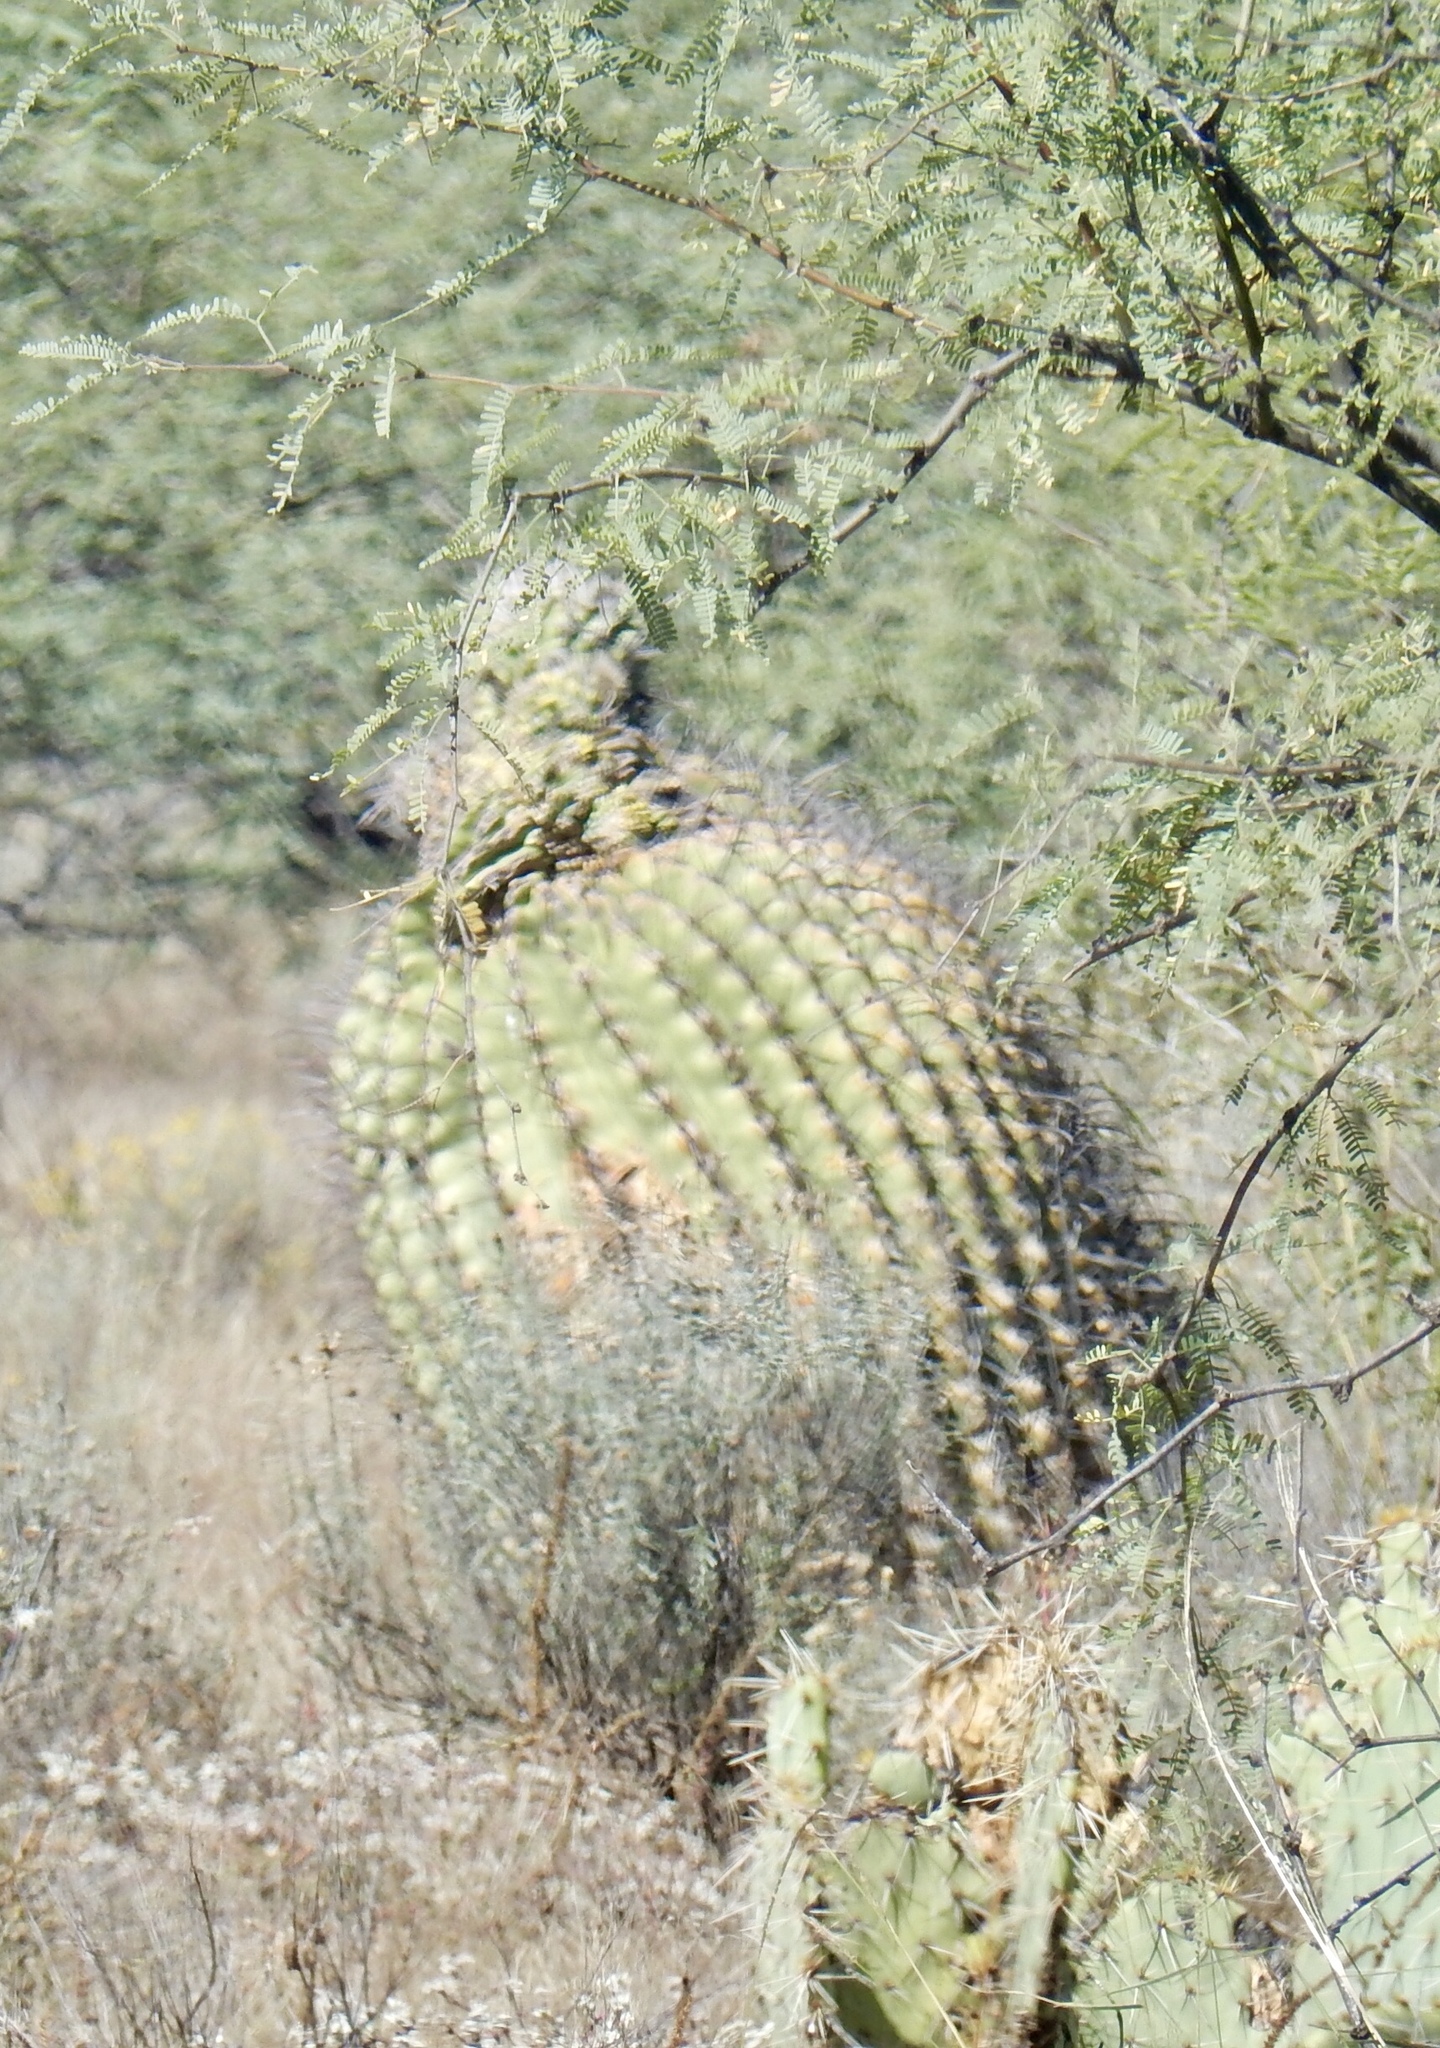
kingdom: Plantae
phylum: Tracheophyta
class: Magnoliopsida
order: Caryophyllales
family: Cactaceae
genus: Ferocactus
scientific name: Ferocactus wislizeni
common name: Candy barrel cactus
